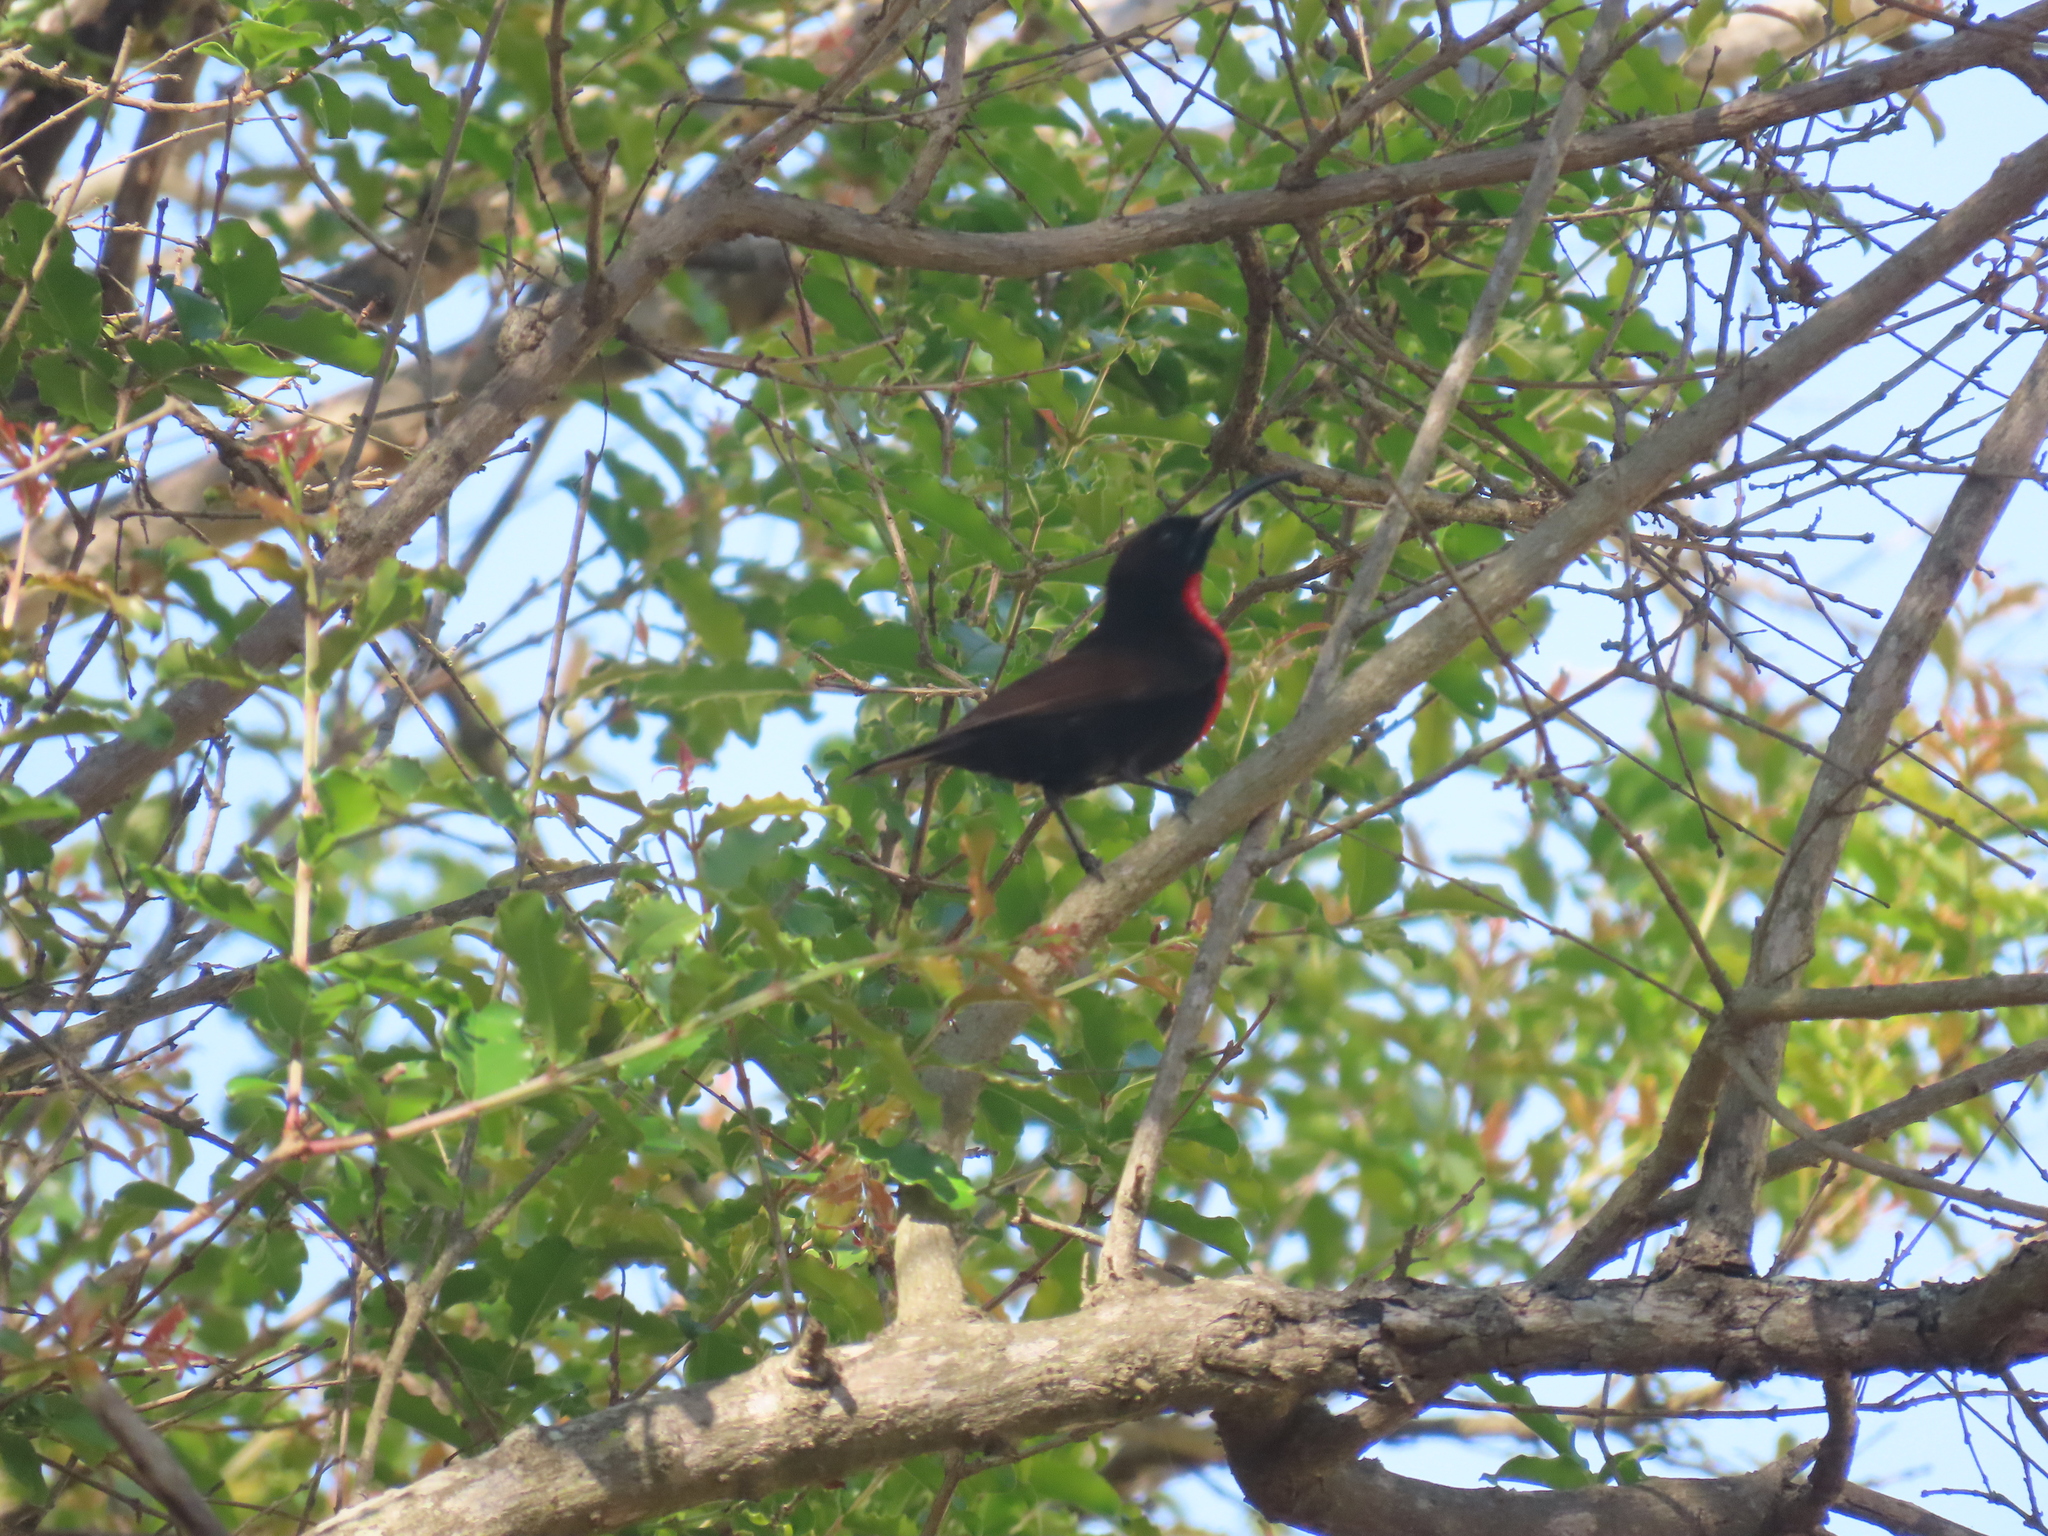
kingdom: Animalia
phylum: Chordata
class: Aves
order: Passeriformes
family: Nectariniidae
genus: Chalcomitra
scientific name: Chalcomitra senegalensis
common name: Scarlet-chested sunbird
